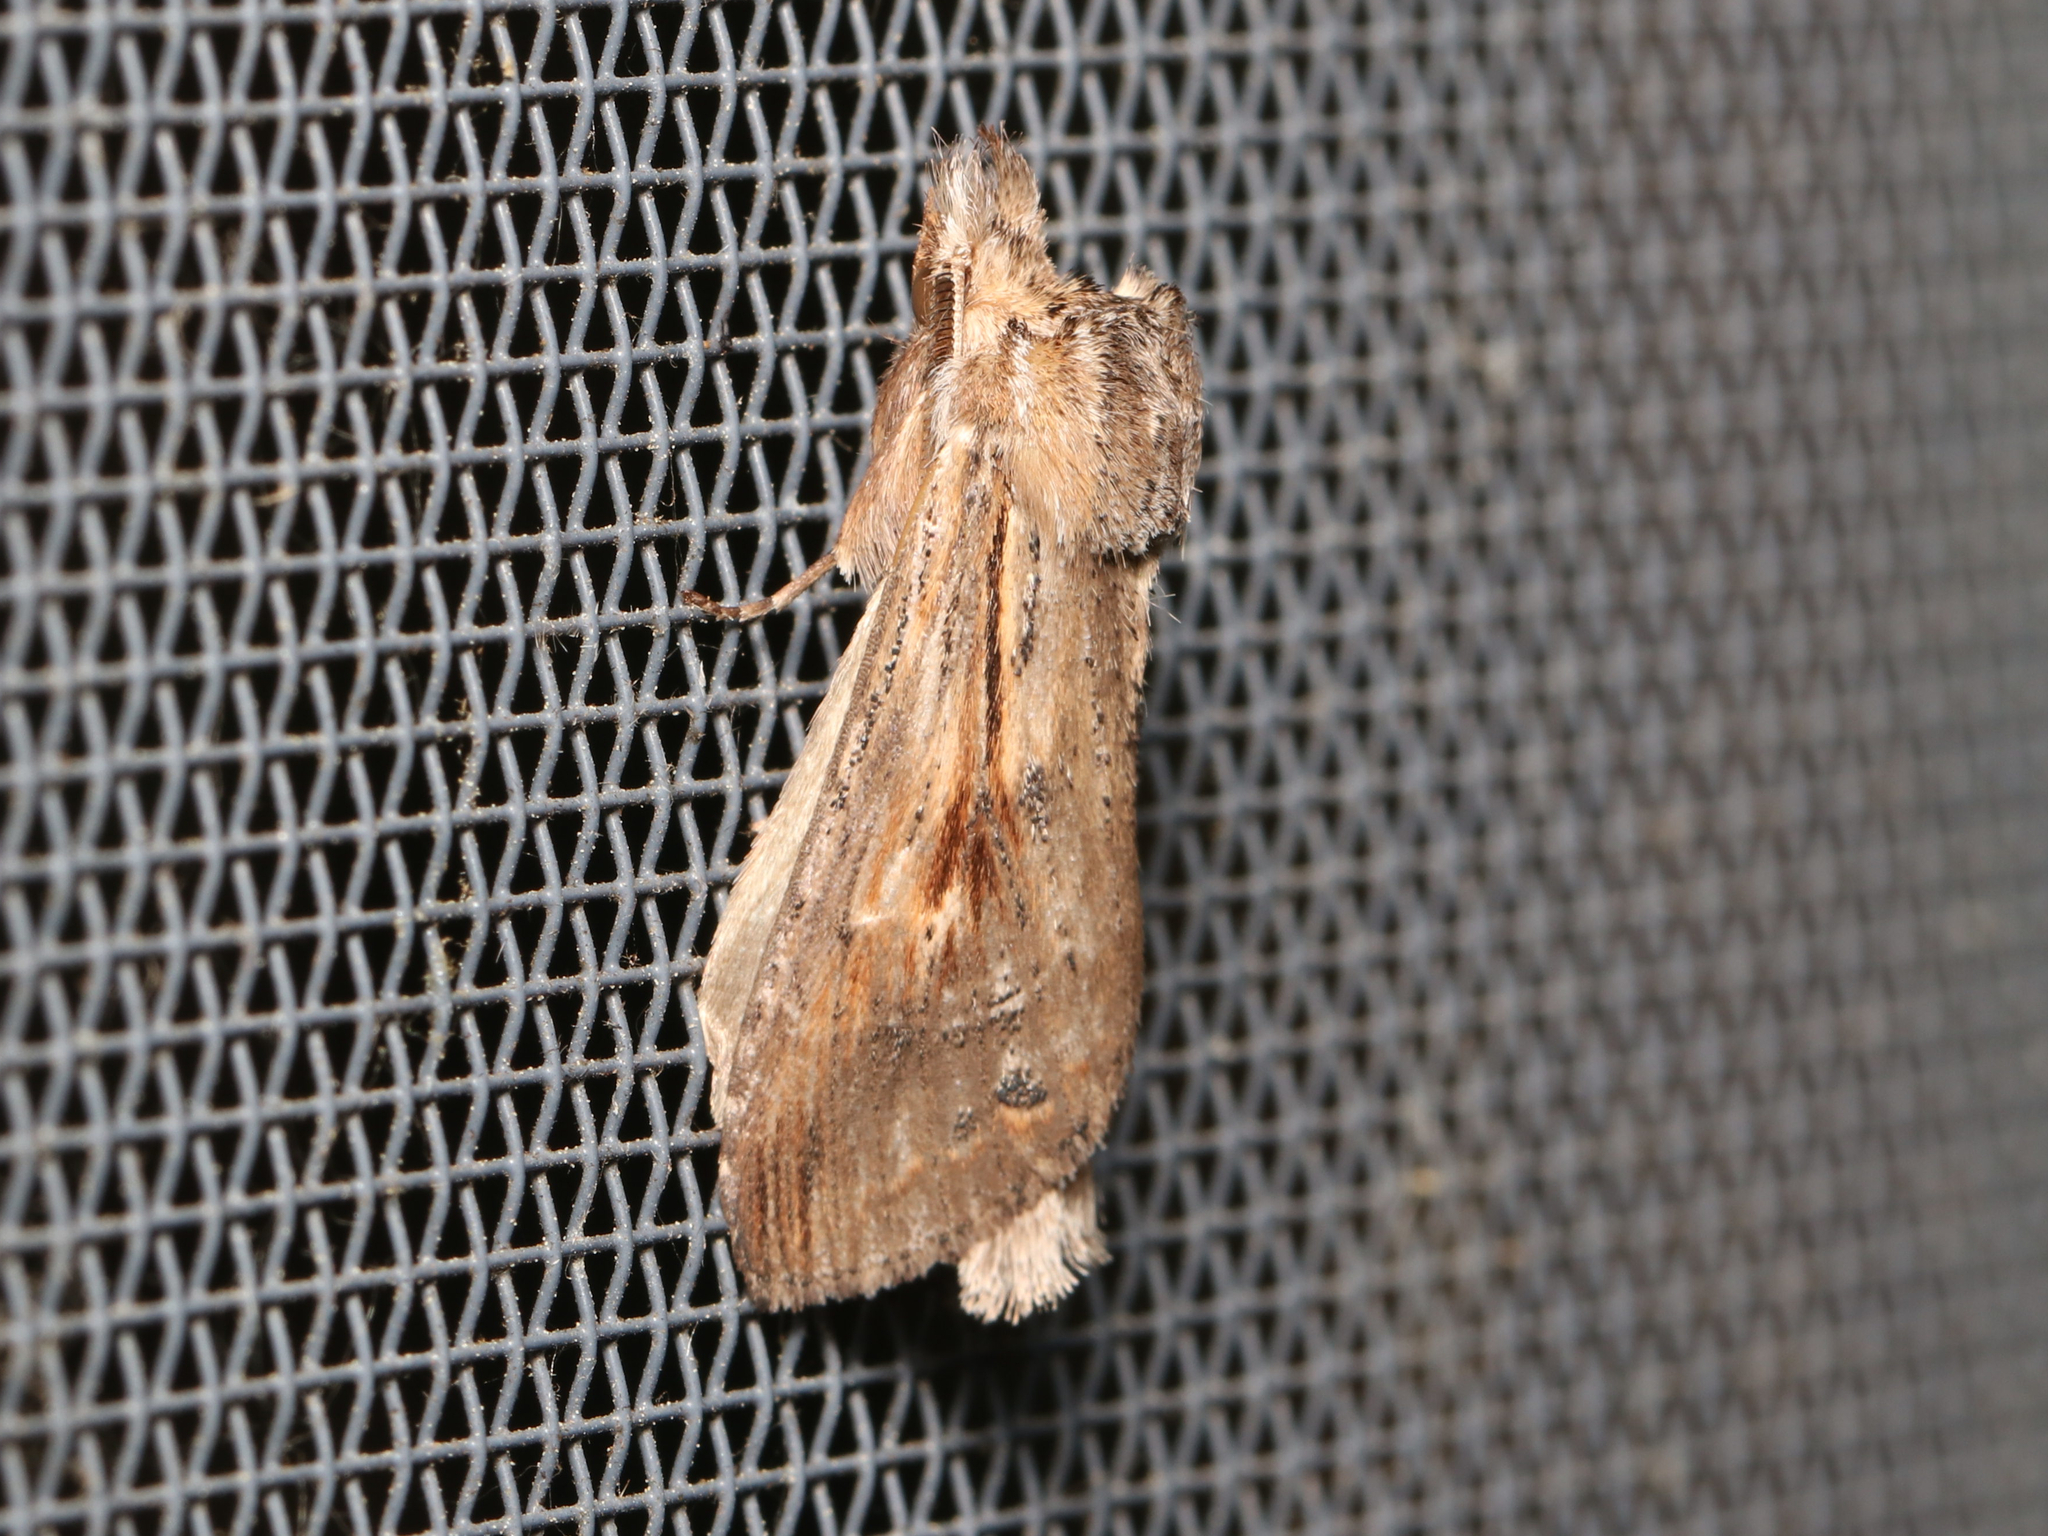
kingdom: Animalia
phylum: Arthropoda
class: Insecta
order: Lepidoptera
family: Notodontidae
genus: Dasylophia
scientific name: Dasylophia anguina
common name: Black-spotted prominent
